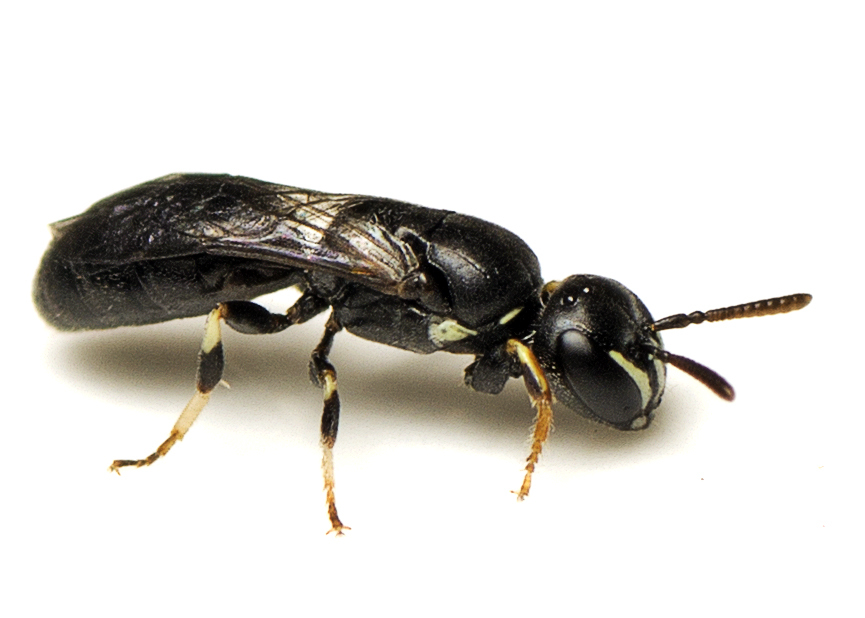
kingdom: Animalia
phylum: Arthropoda
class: Insecta
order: Hymenoptera
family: Colletidae
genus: Hylaeus
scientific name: Hylaeus aralis
